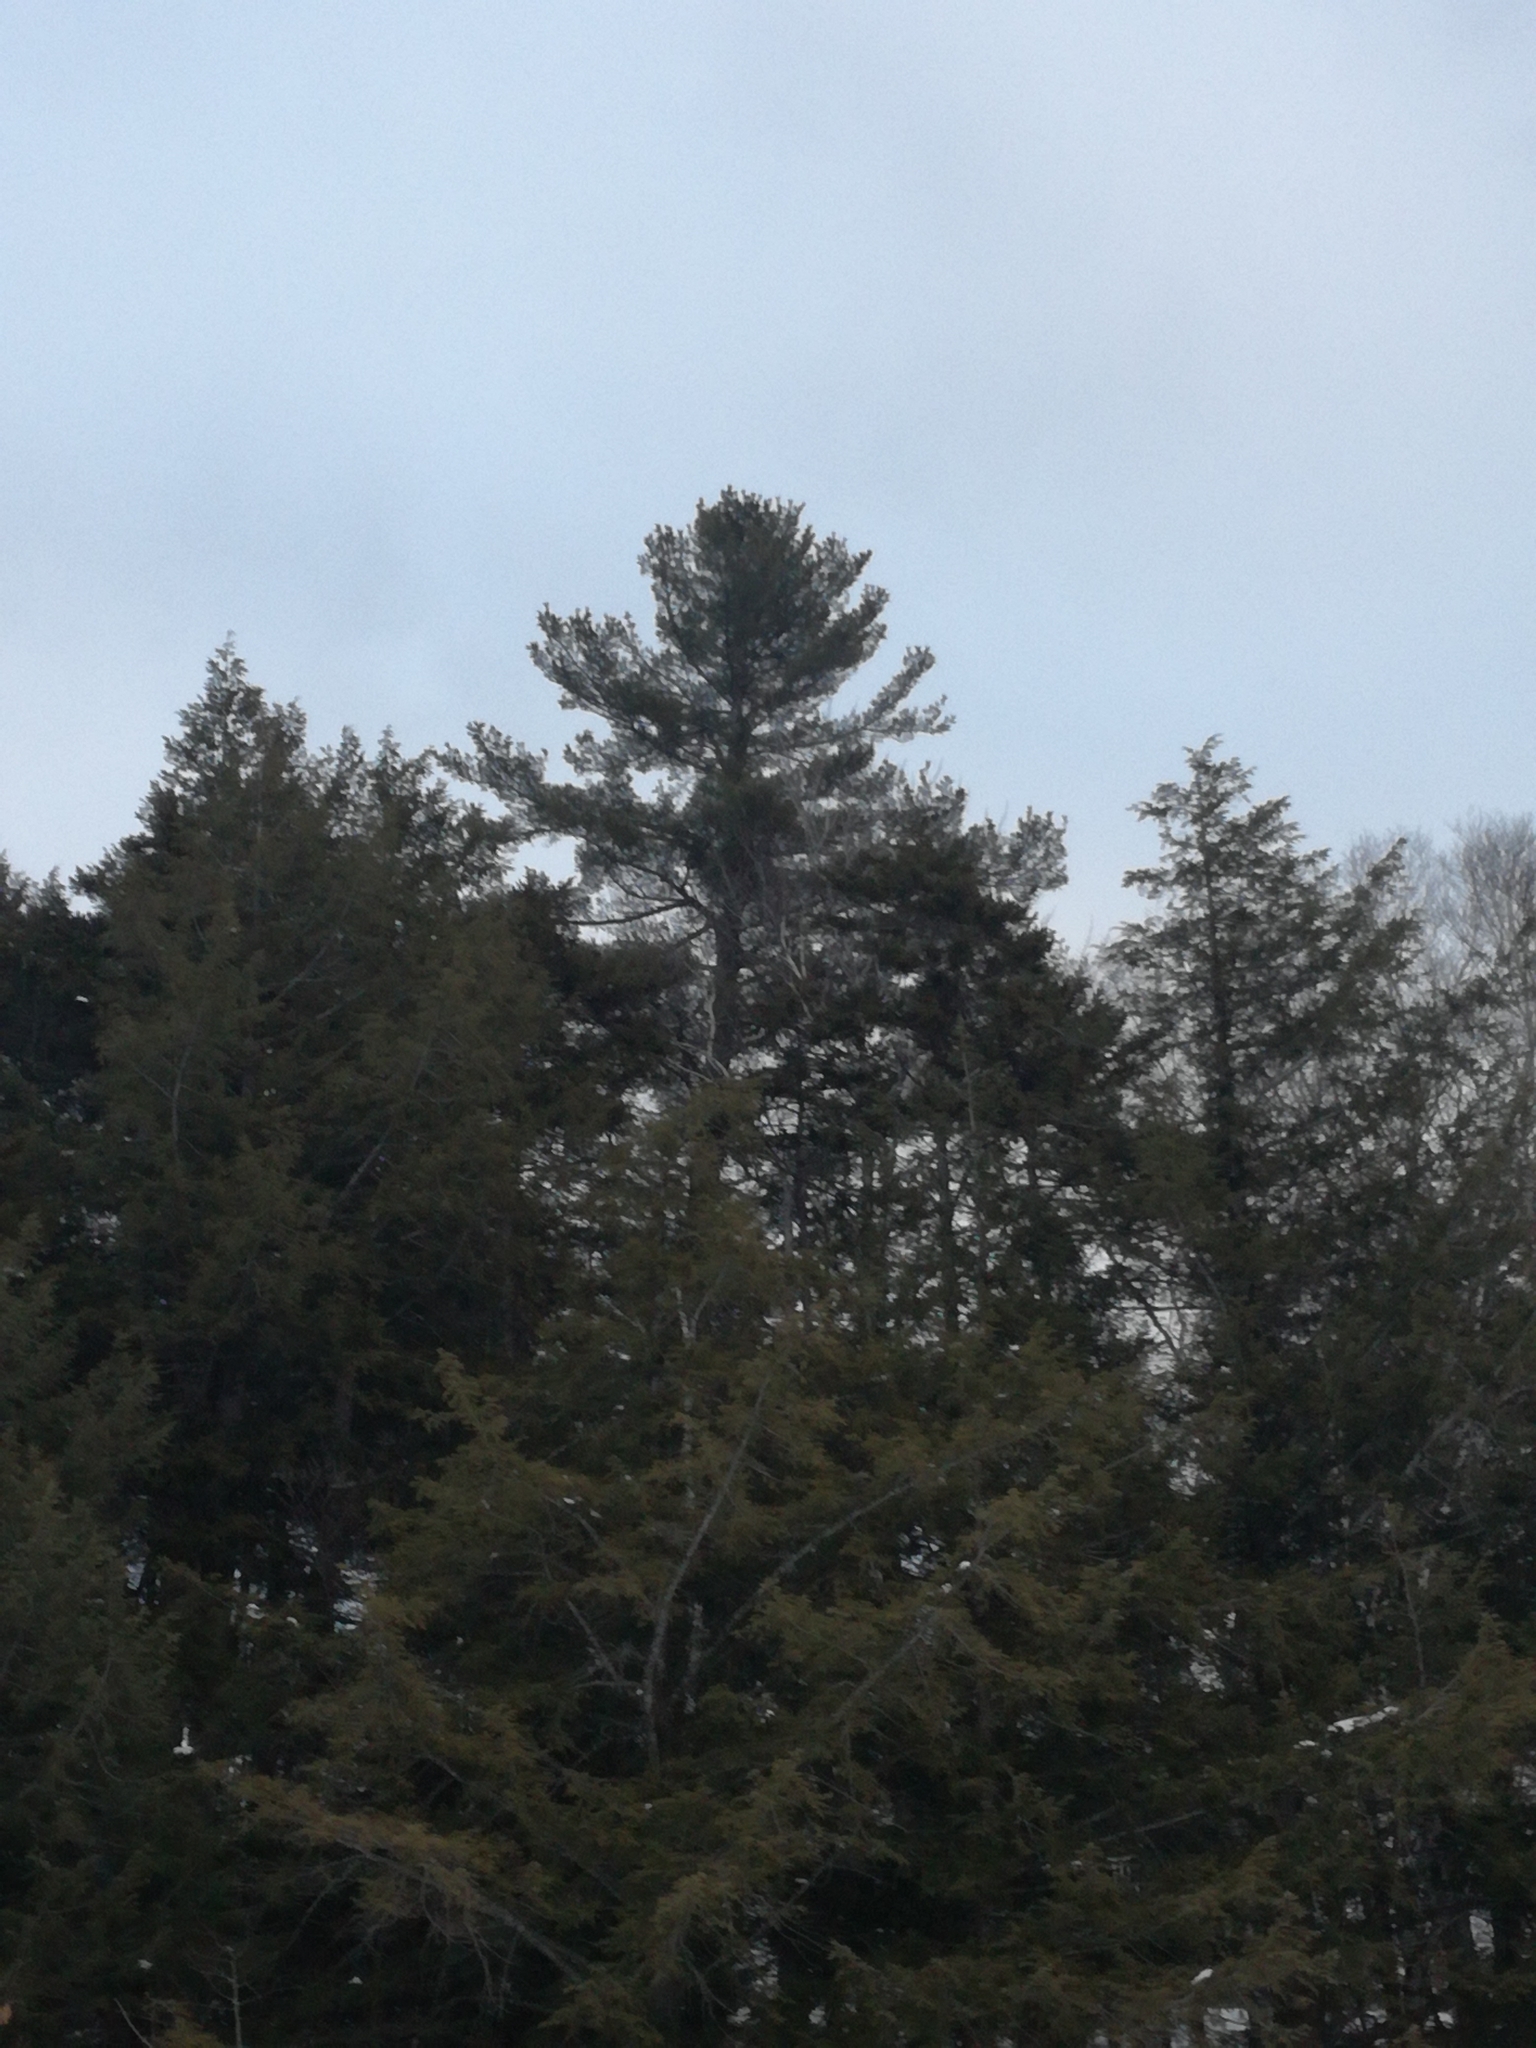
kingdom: Plantae
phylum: Tracheophyta
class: Pinopsida
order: Pinales
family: Pinaceae
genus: Pinus
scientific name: Pinus strobus
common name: Weymouth pine
